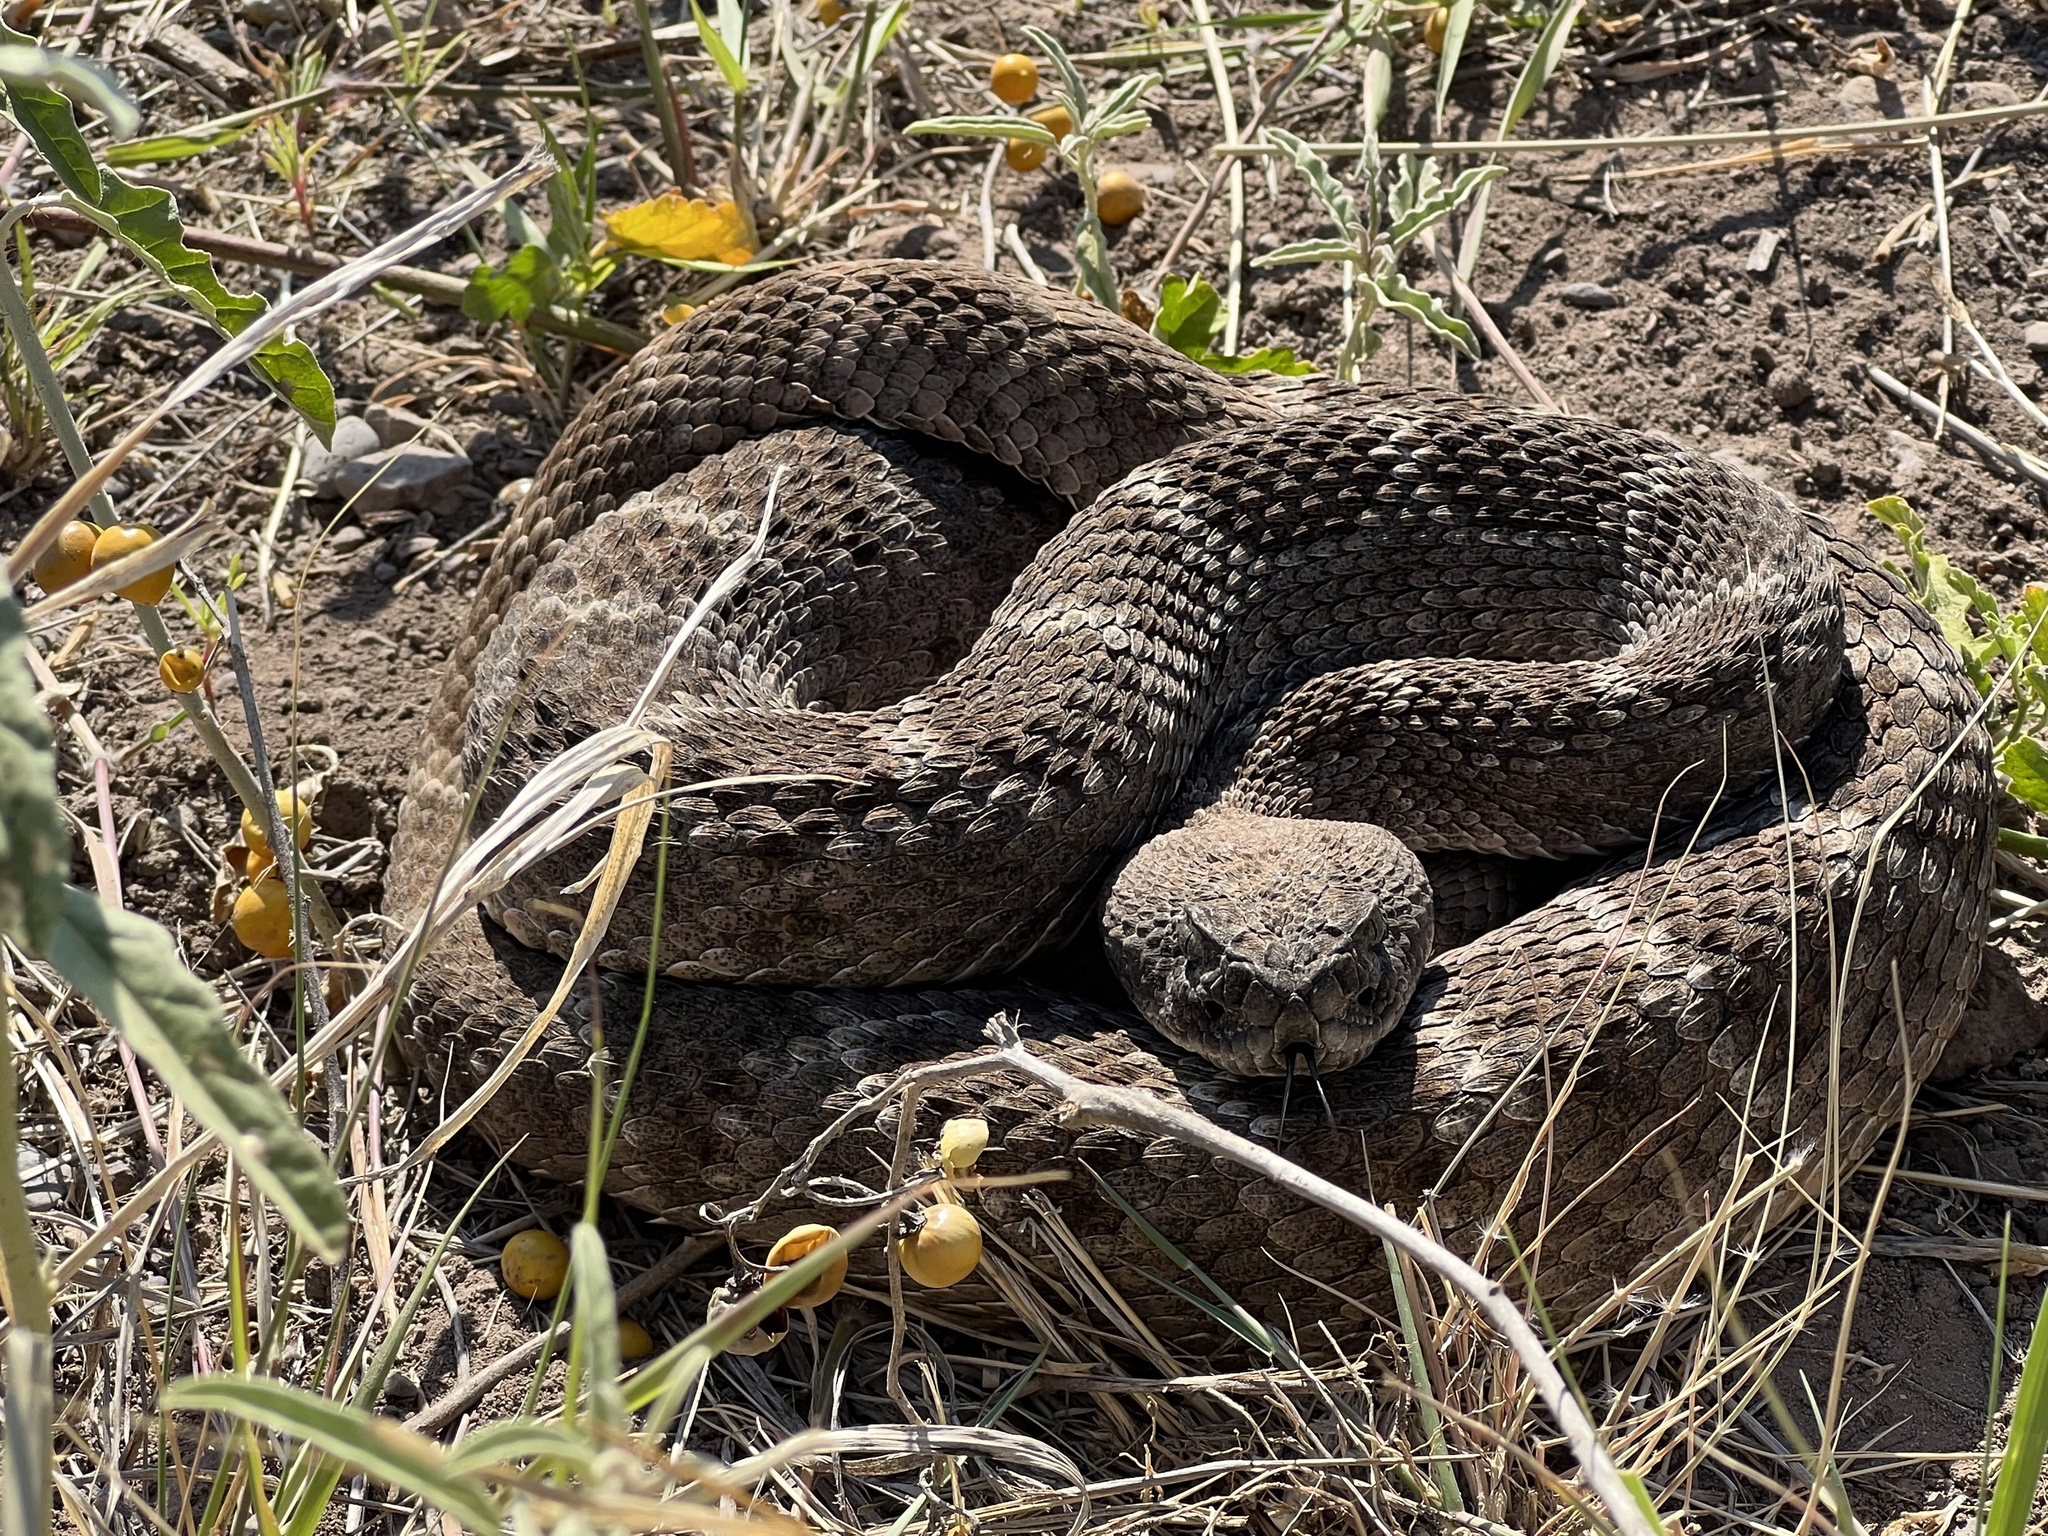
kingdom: Animalia
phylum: Chordata
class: Squamata
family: Viperidae
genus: Crotalus
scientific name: Crotalus atrox
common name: Western diamond-backed rattlesnake
